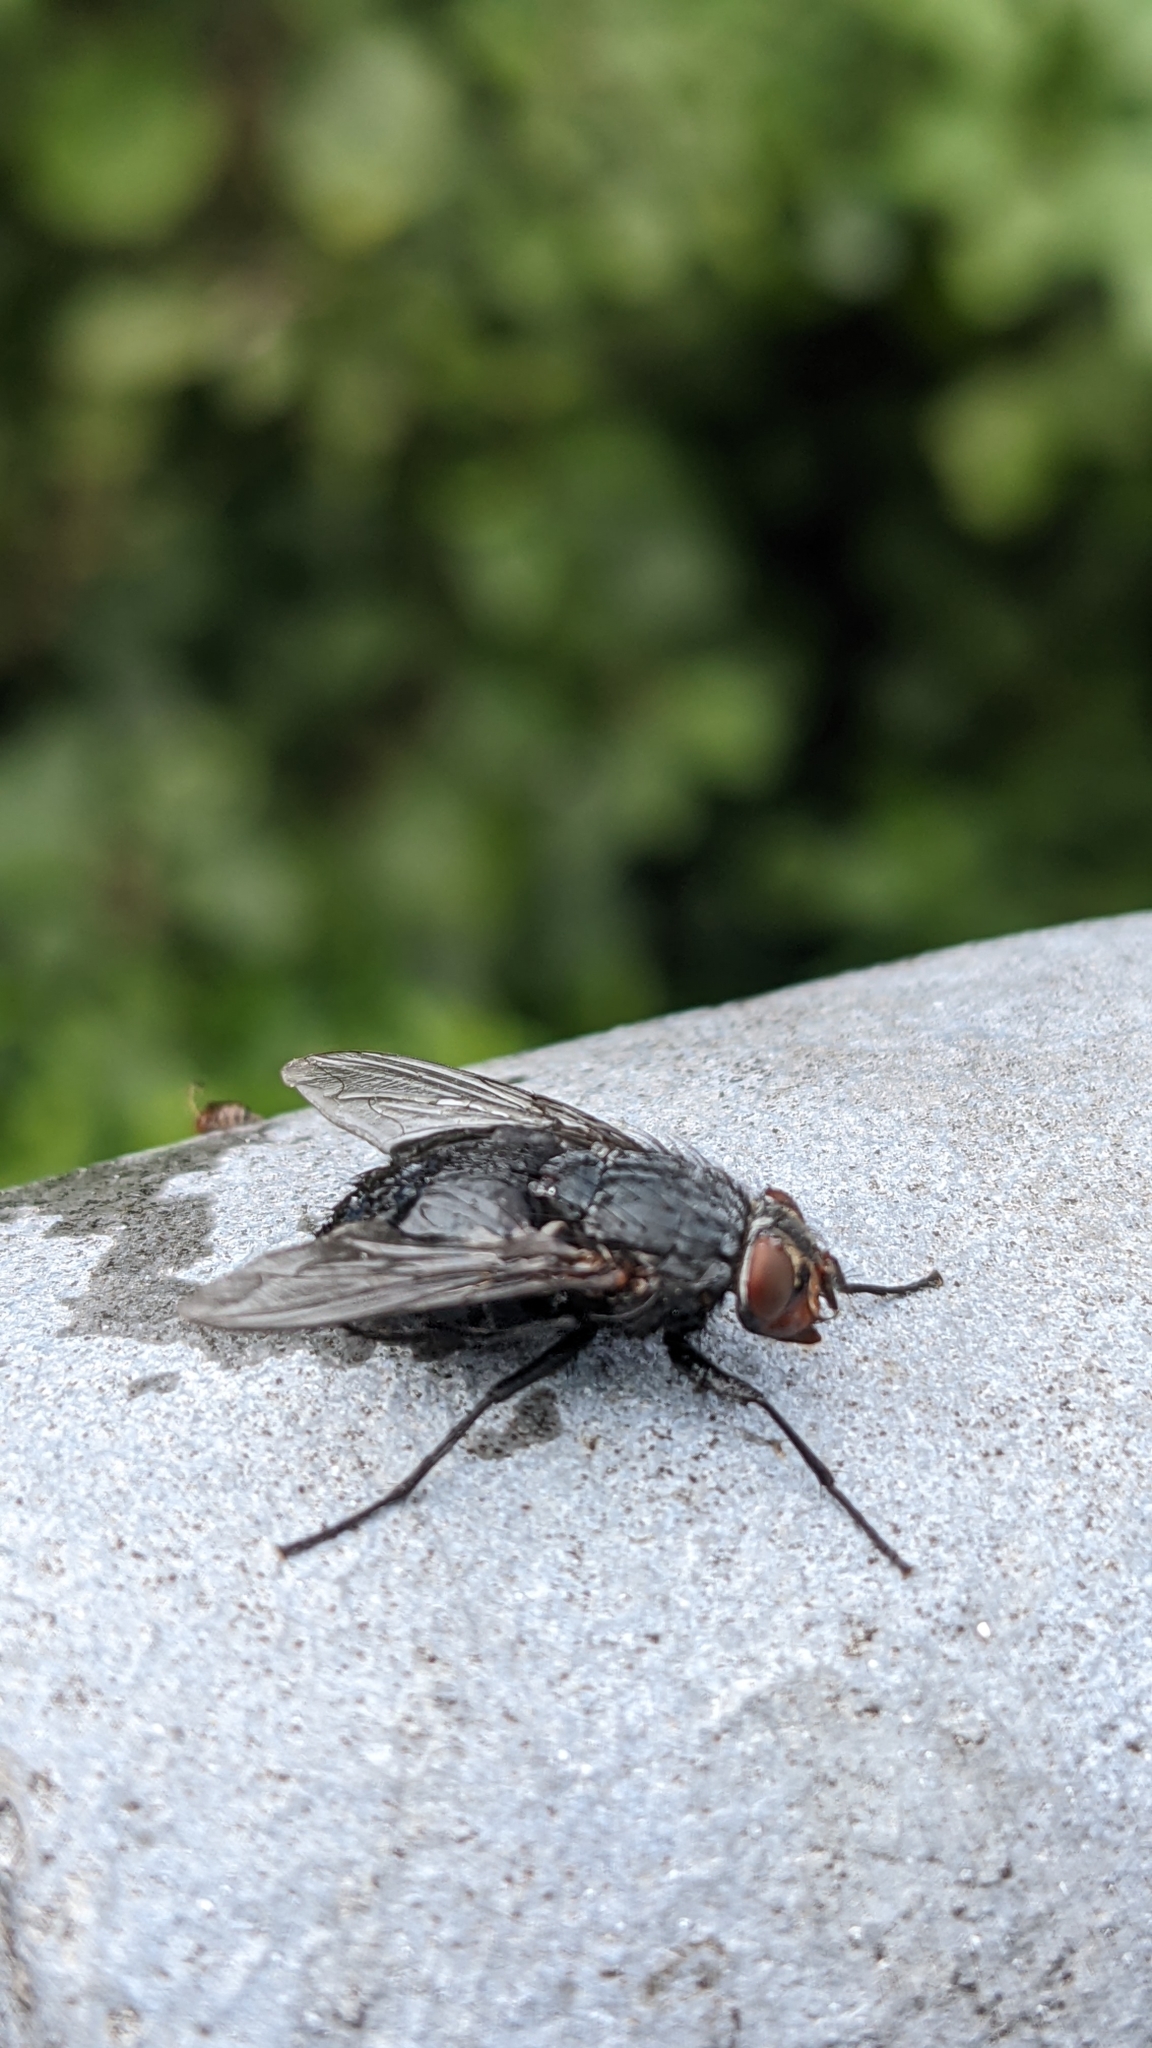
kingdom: Animalia
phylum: Arthropoda
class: Insecta
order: Diptera
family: Calliphoridae
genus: Calliphora
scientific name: Calliphora vicina
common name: Common blow flie
